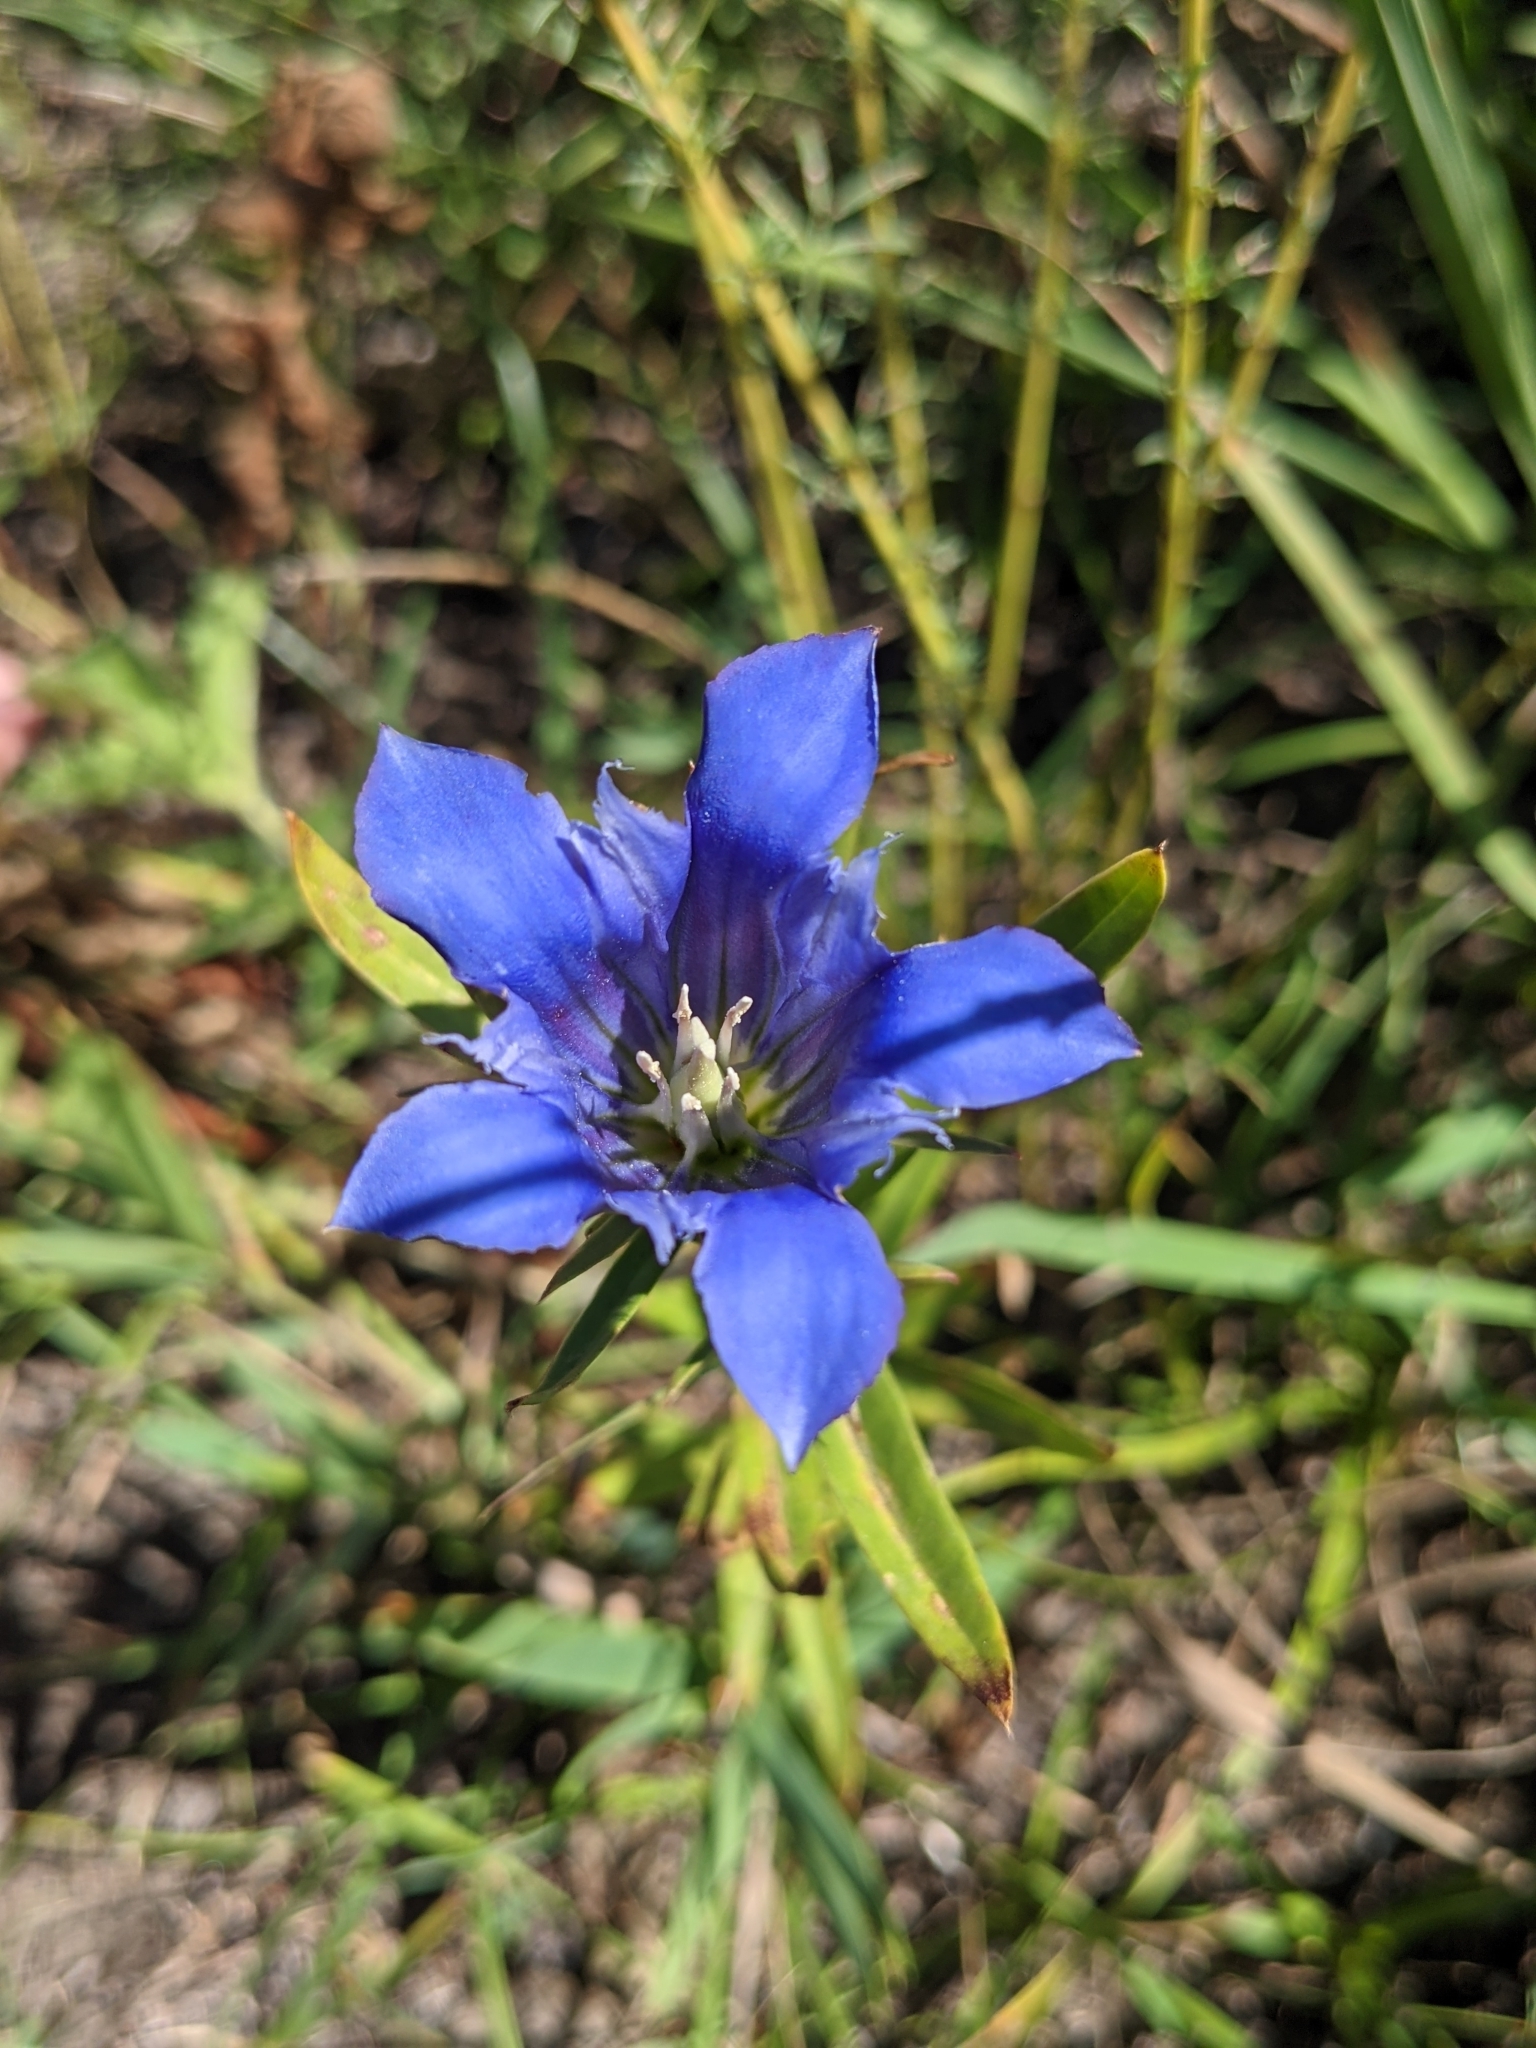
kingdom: Plantae
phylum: Tracheophyta
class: Magnoliopsida
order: Gentianales
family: Gentianaceae
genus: Gentiana
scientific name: Gentiana puberulenta
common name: Downy gentian
